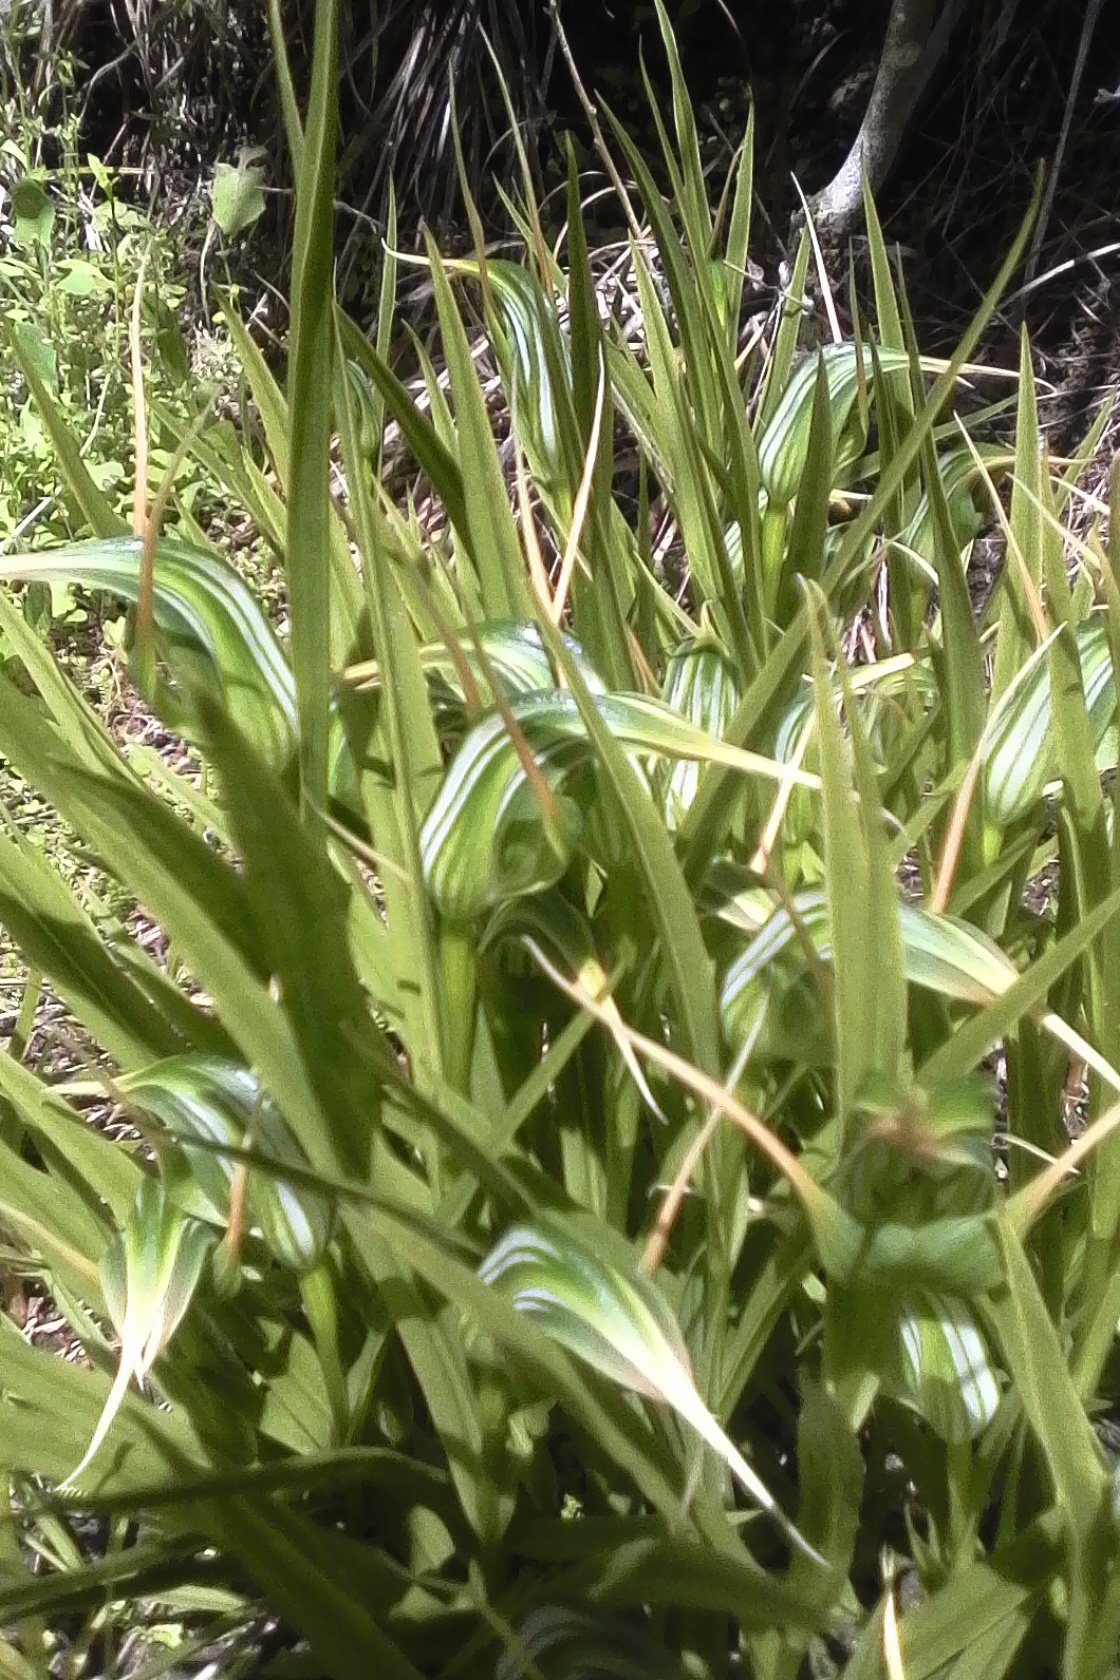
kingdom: Plantae
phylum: Tracheophyta
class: Liliopsida
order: Asparagales
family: Orchidaceae
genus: Pterostylis
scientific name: Pterostylis banksii
